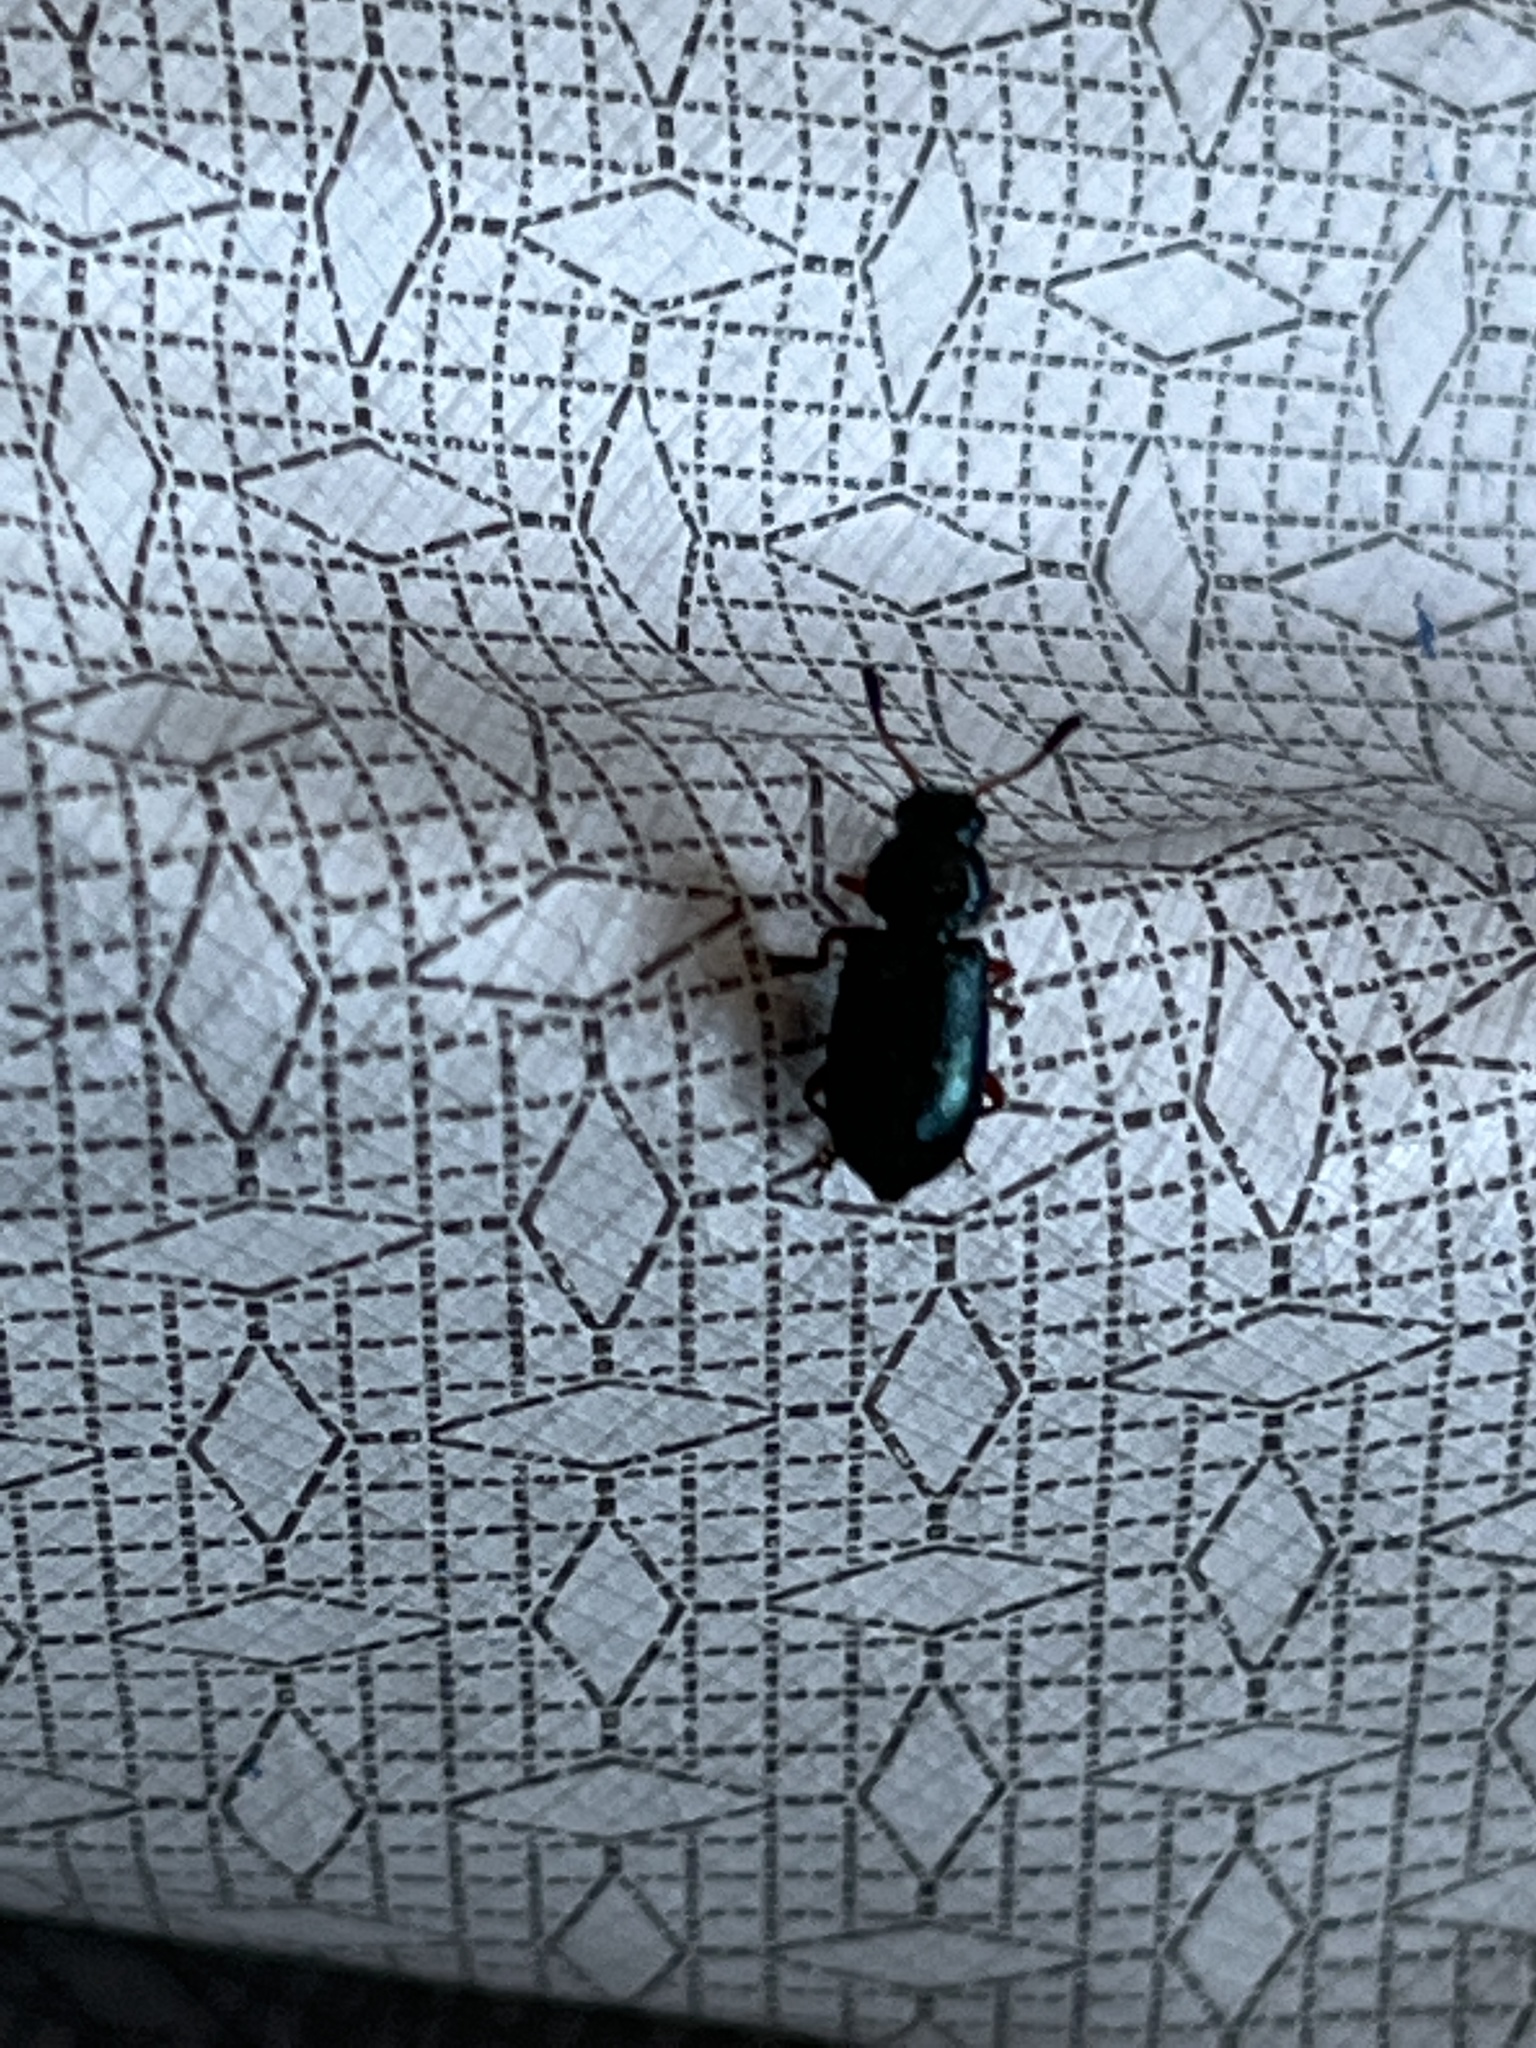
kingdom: Animalia
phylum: Arthropoda
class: Insecta
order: Coleoptera
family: Cleridae
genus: Necrobia
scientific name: Necrobia rufipes
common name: Red-legged ham beetle
